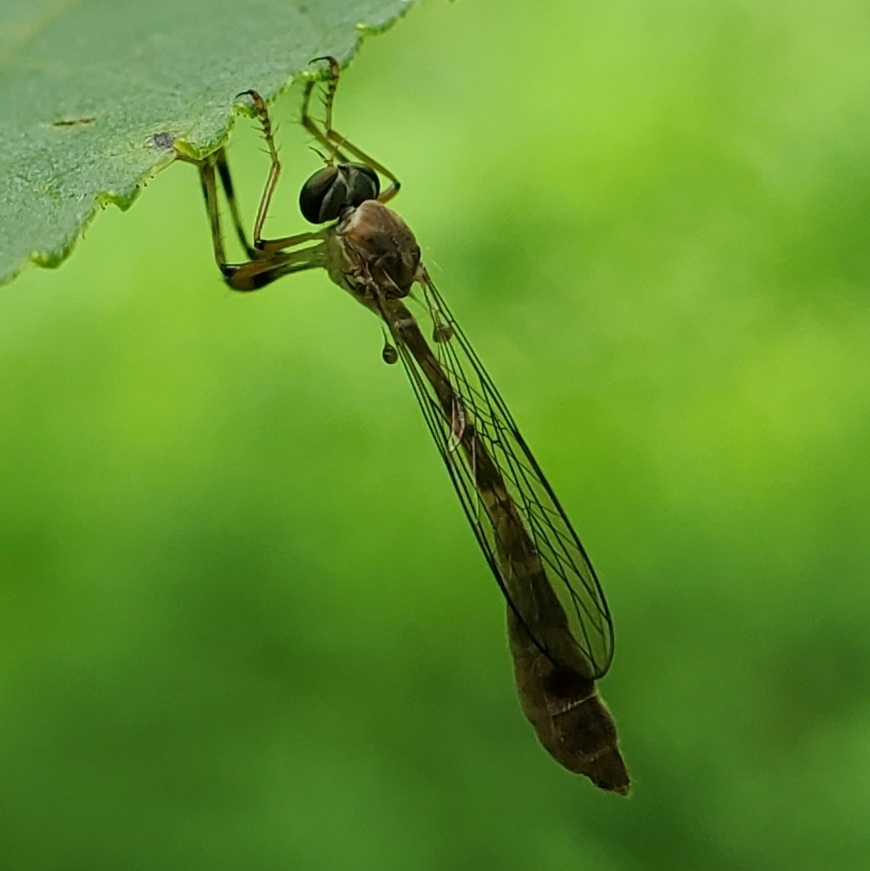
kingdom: Animalia
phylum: Arthropoda
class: Insecta
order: Diptera
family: Asilidae
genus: Psilonyx
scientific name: Psilonyx annulatus
